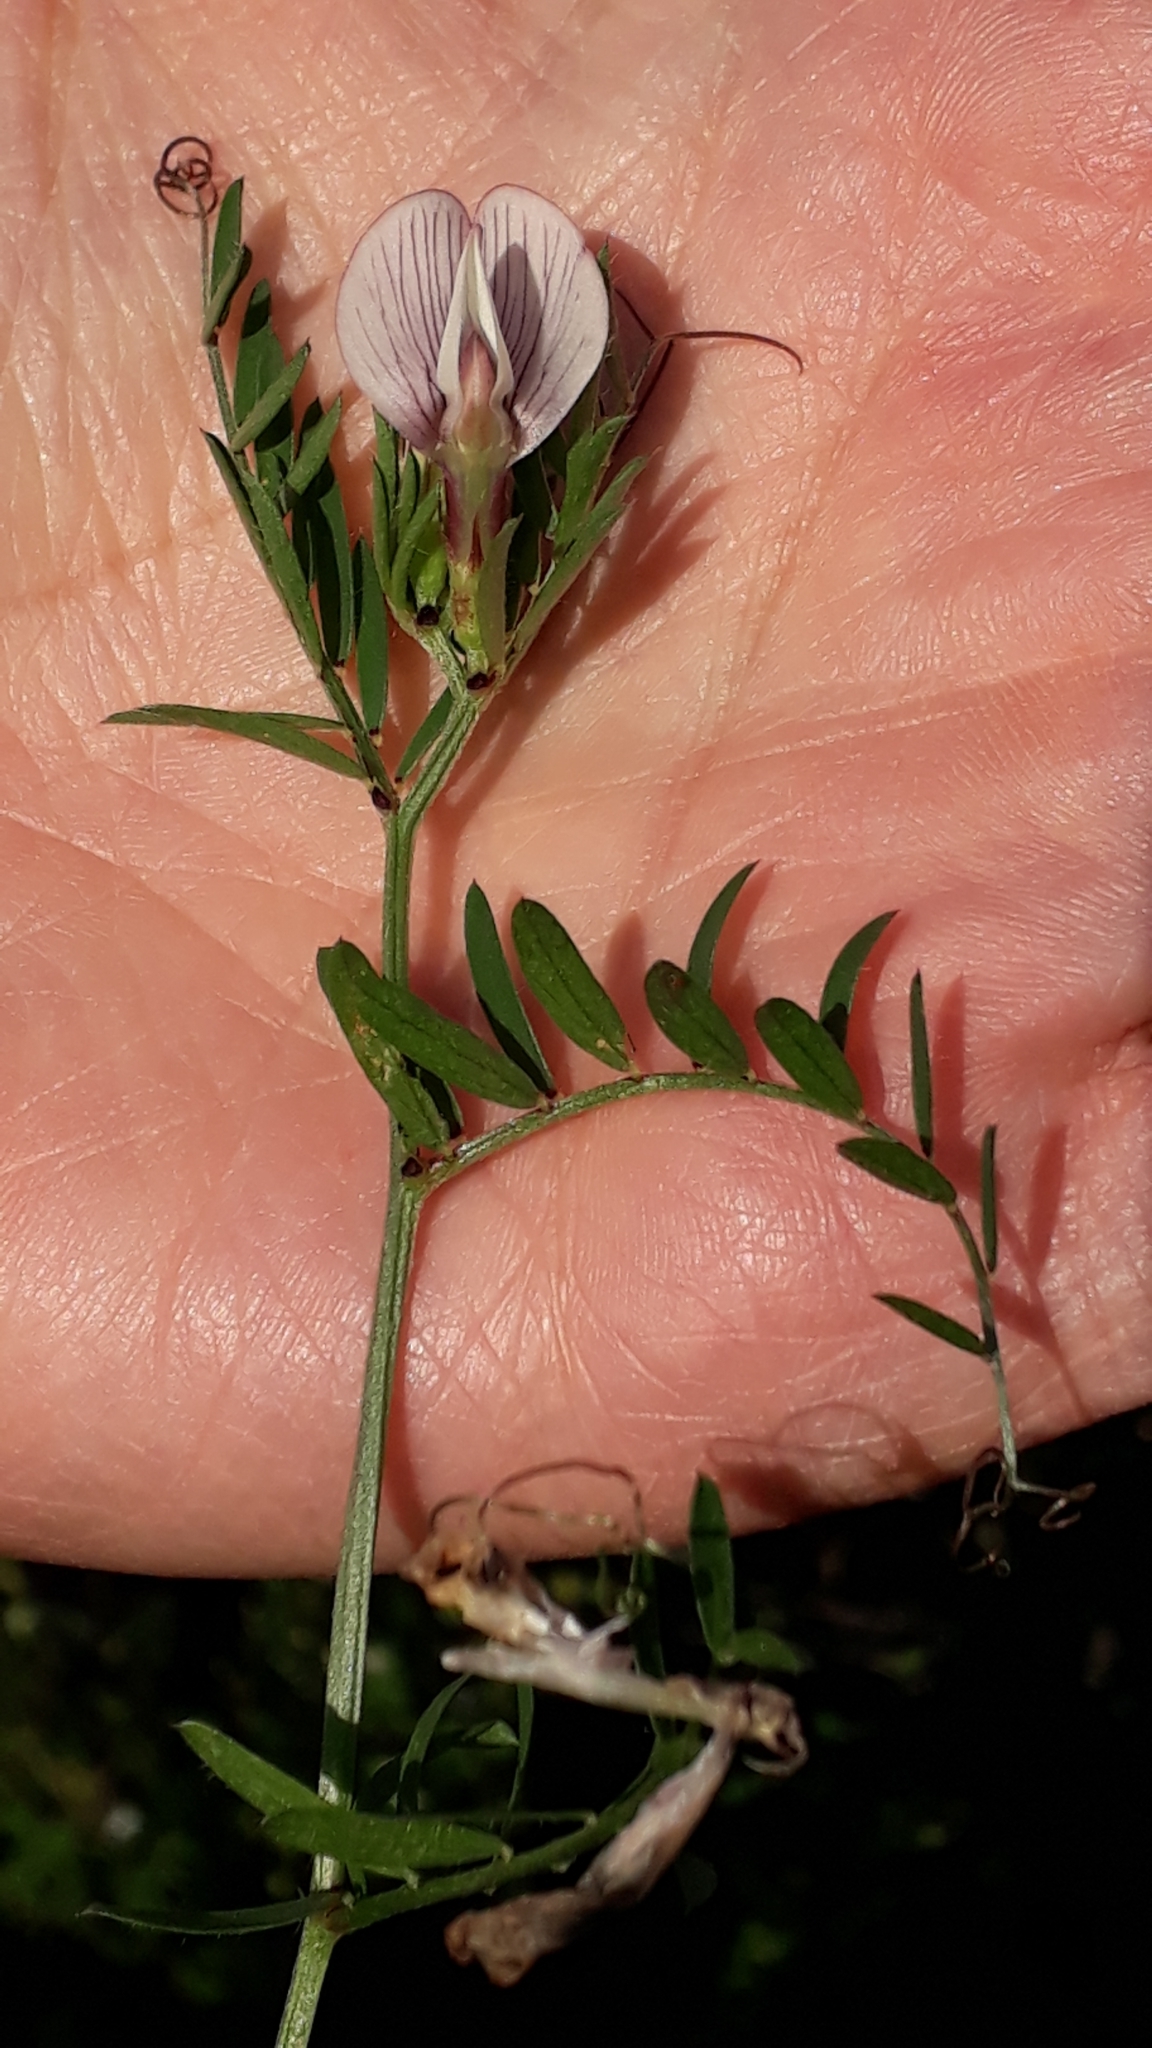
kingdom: Plantae
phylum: Tracheophyta
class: Magnoliopsida
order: Fabales
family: Fabaceae
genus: Vicia
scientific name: Vicia lutea
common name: Smooth yellow vetch
